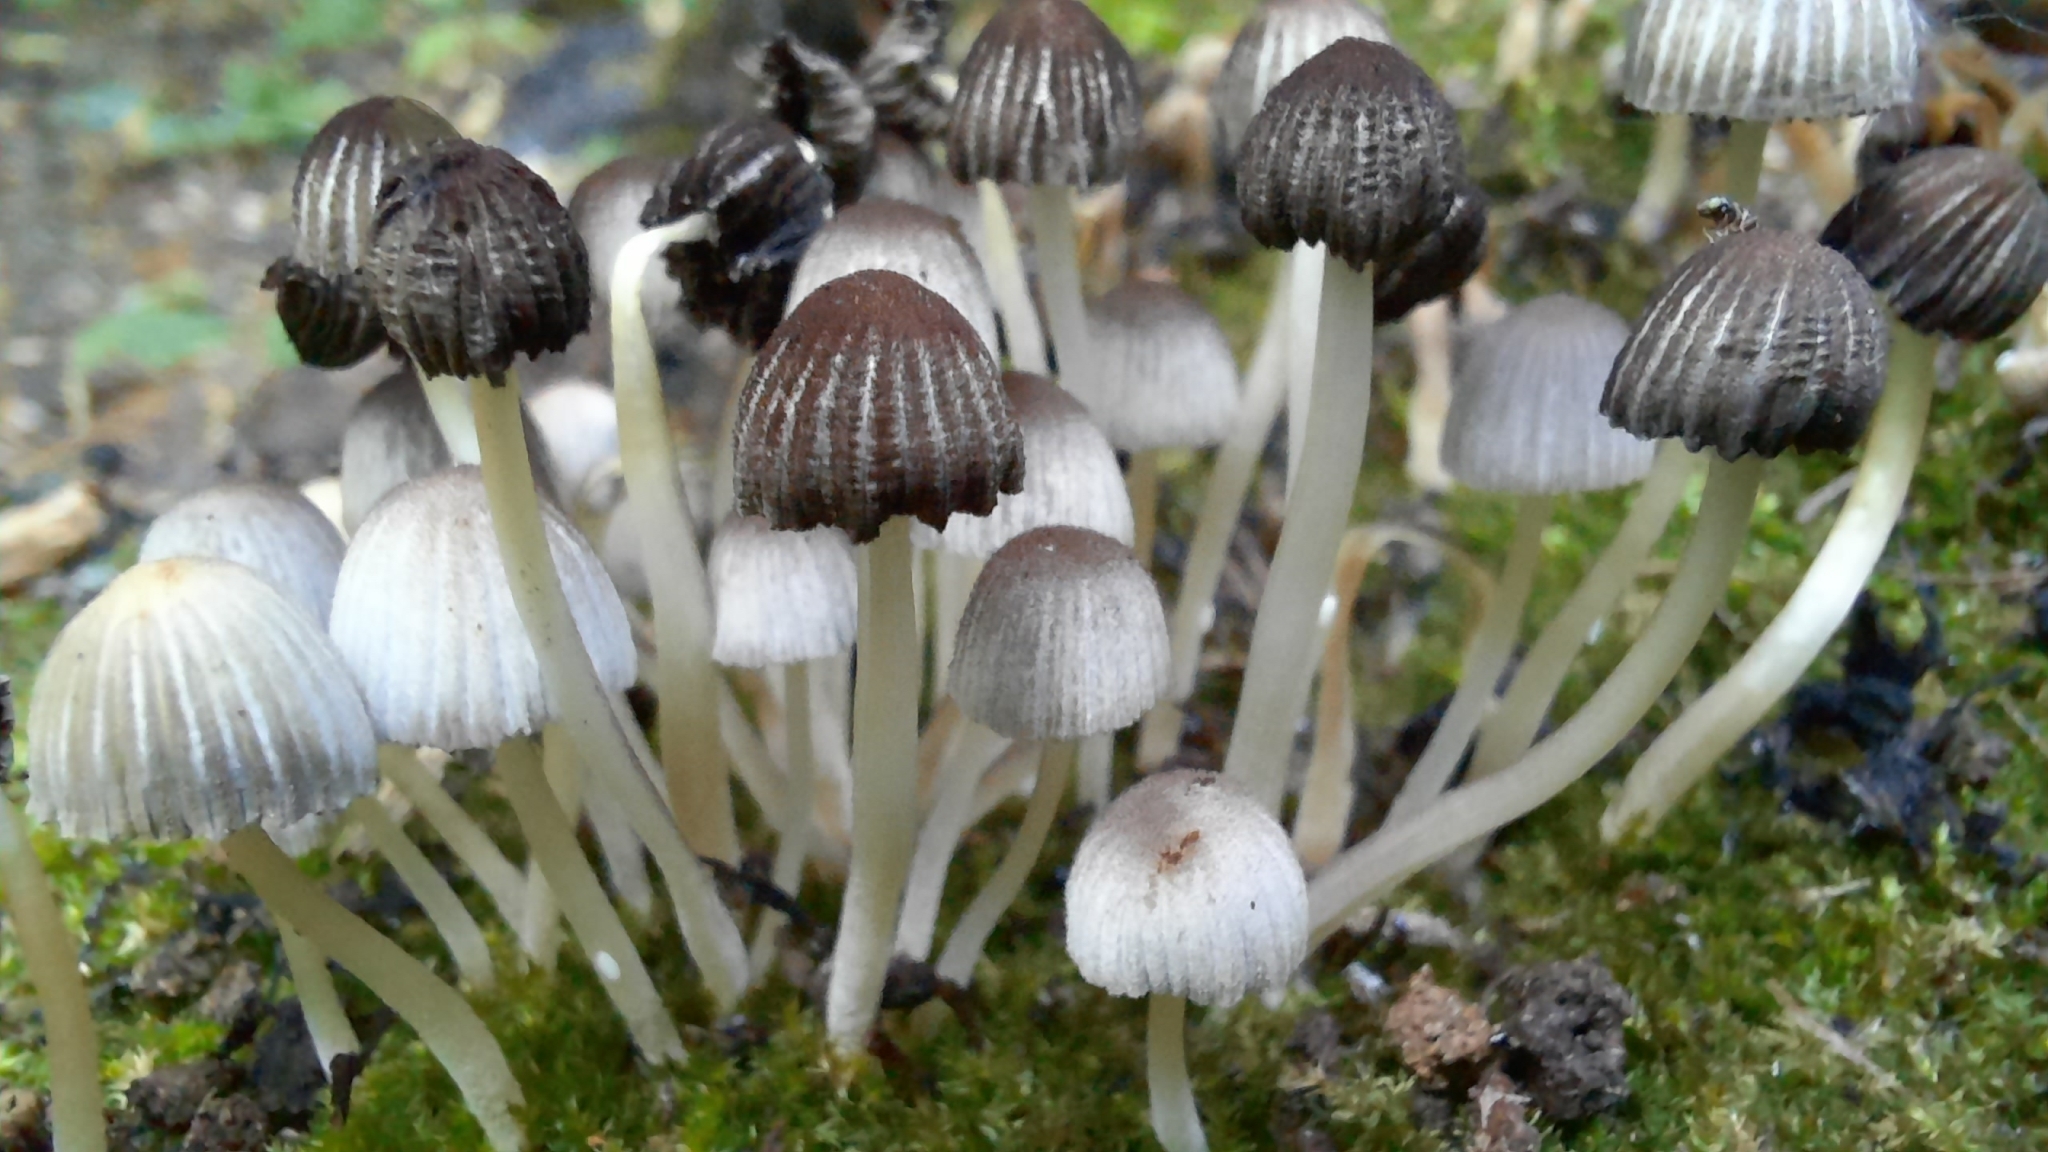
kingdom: Fungi
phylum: Basidiomycota
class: Agaricomycetes
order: Agaricales
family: Psathyrellaceae
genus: Coprinellus
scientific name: Coprinellus disseminatus
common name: Fairies' bonnets
